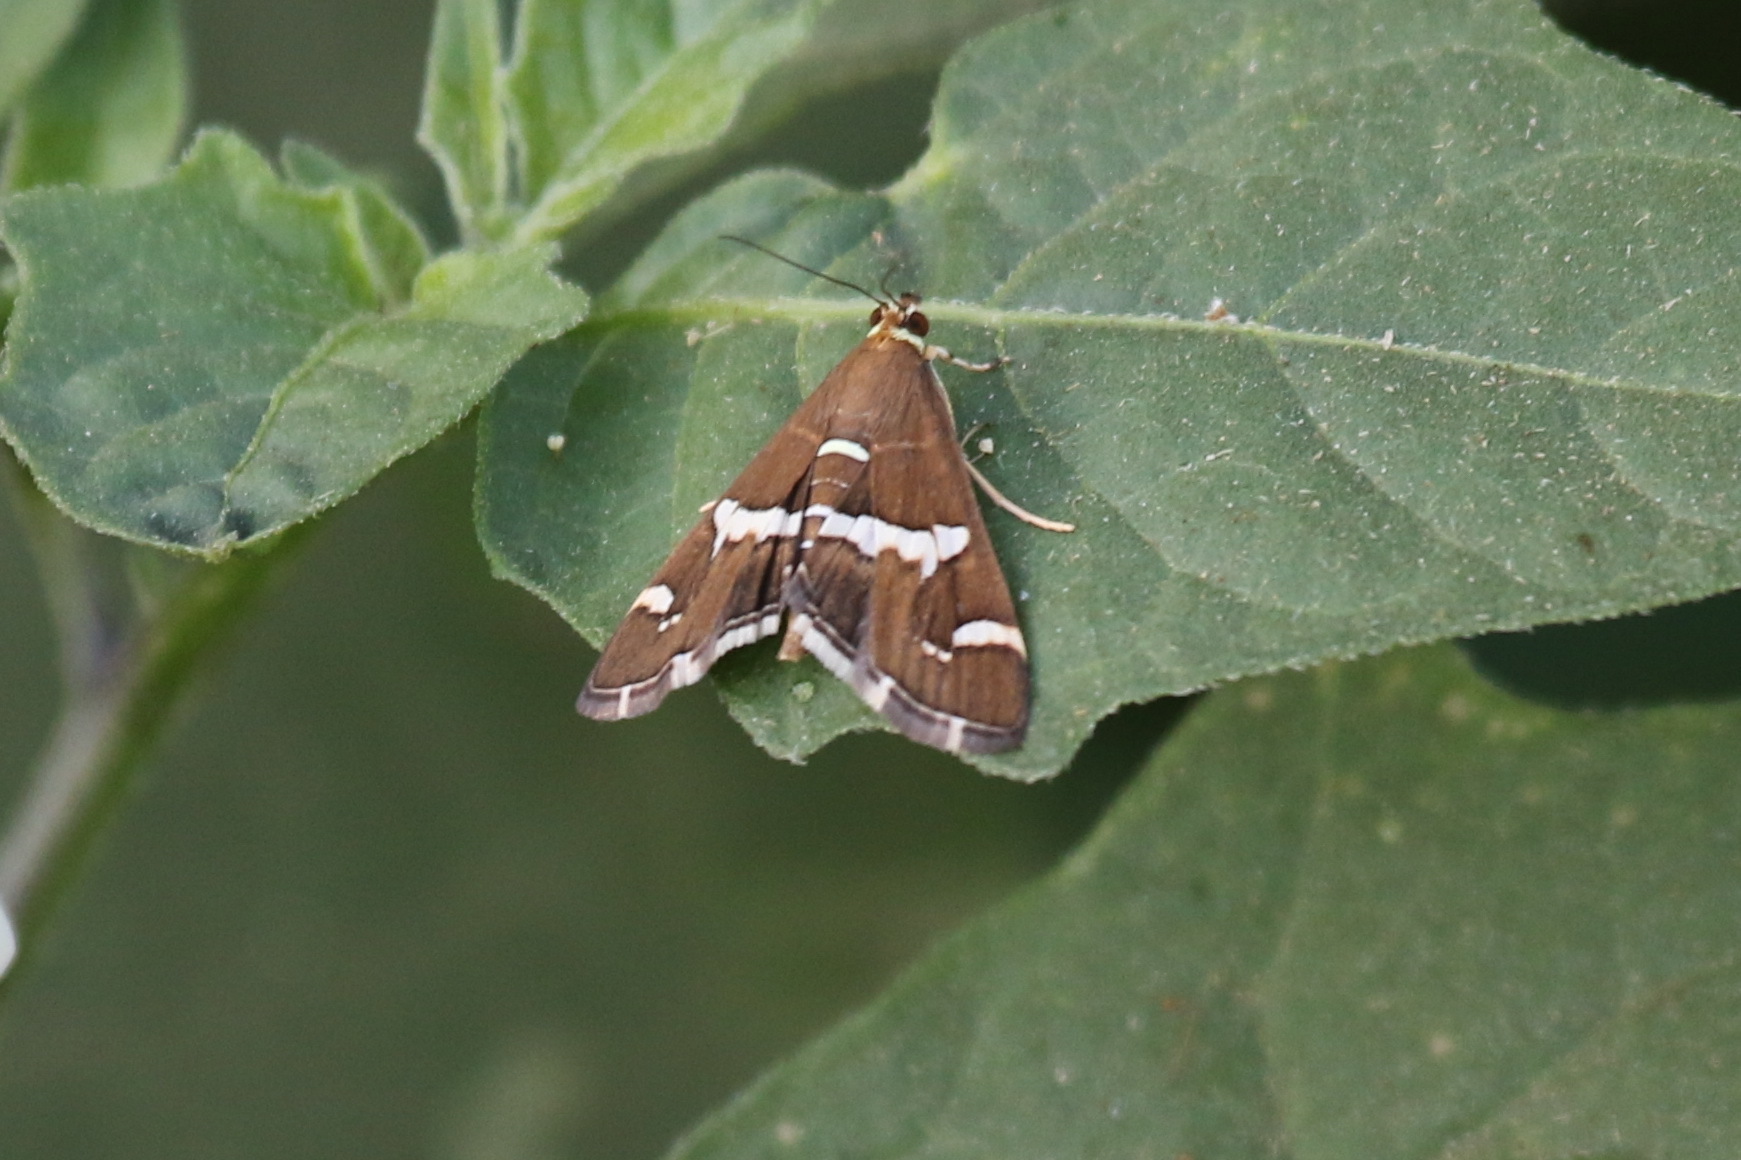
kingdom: Animalia
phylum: Arthropoda
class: Insecta
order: Lepidoptera
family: Crambidae
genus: Spoladea
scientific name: Spoladea recurvalis
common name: Beet webworm moth
